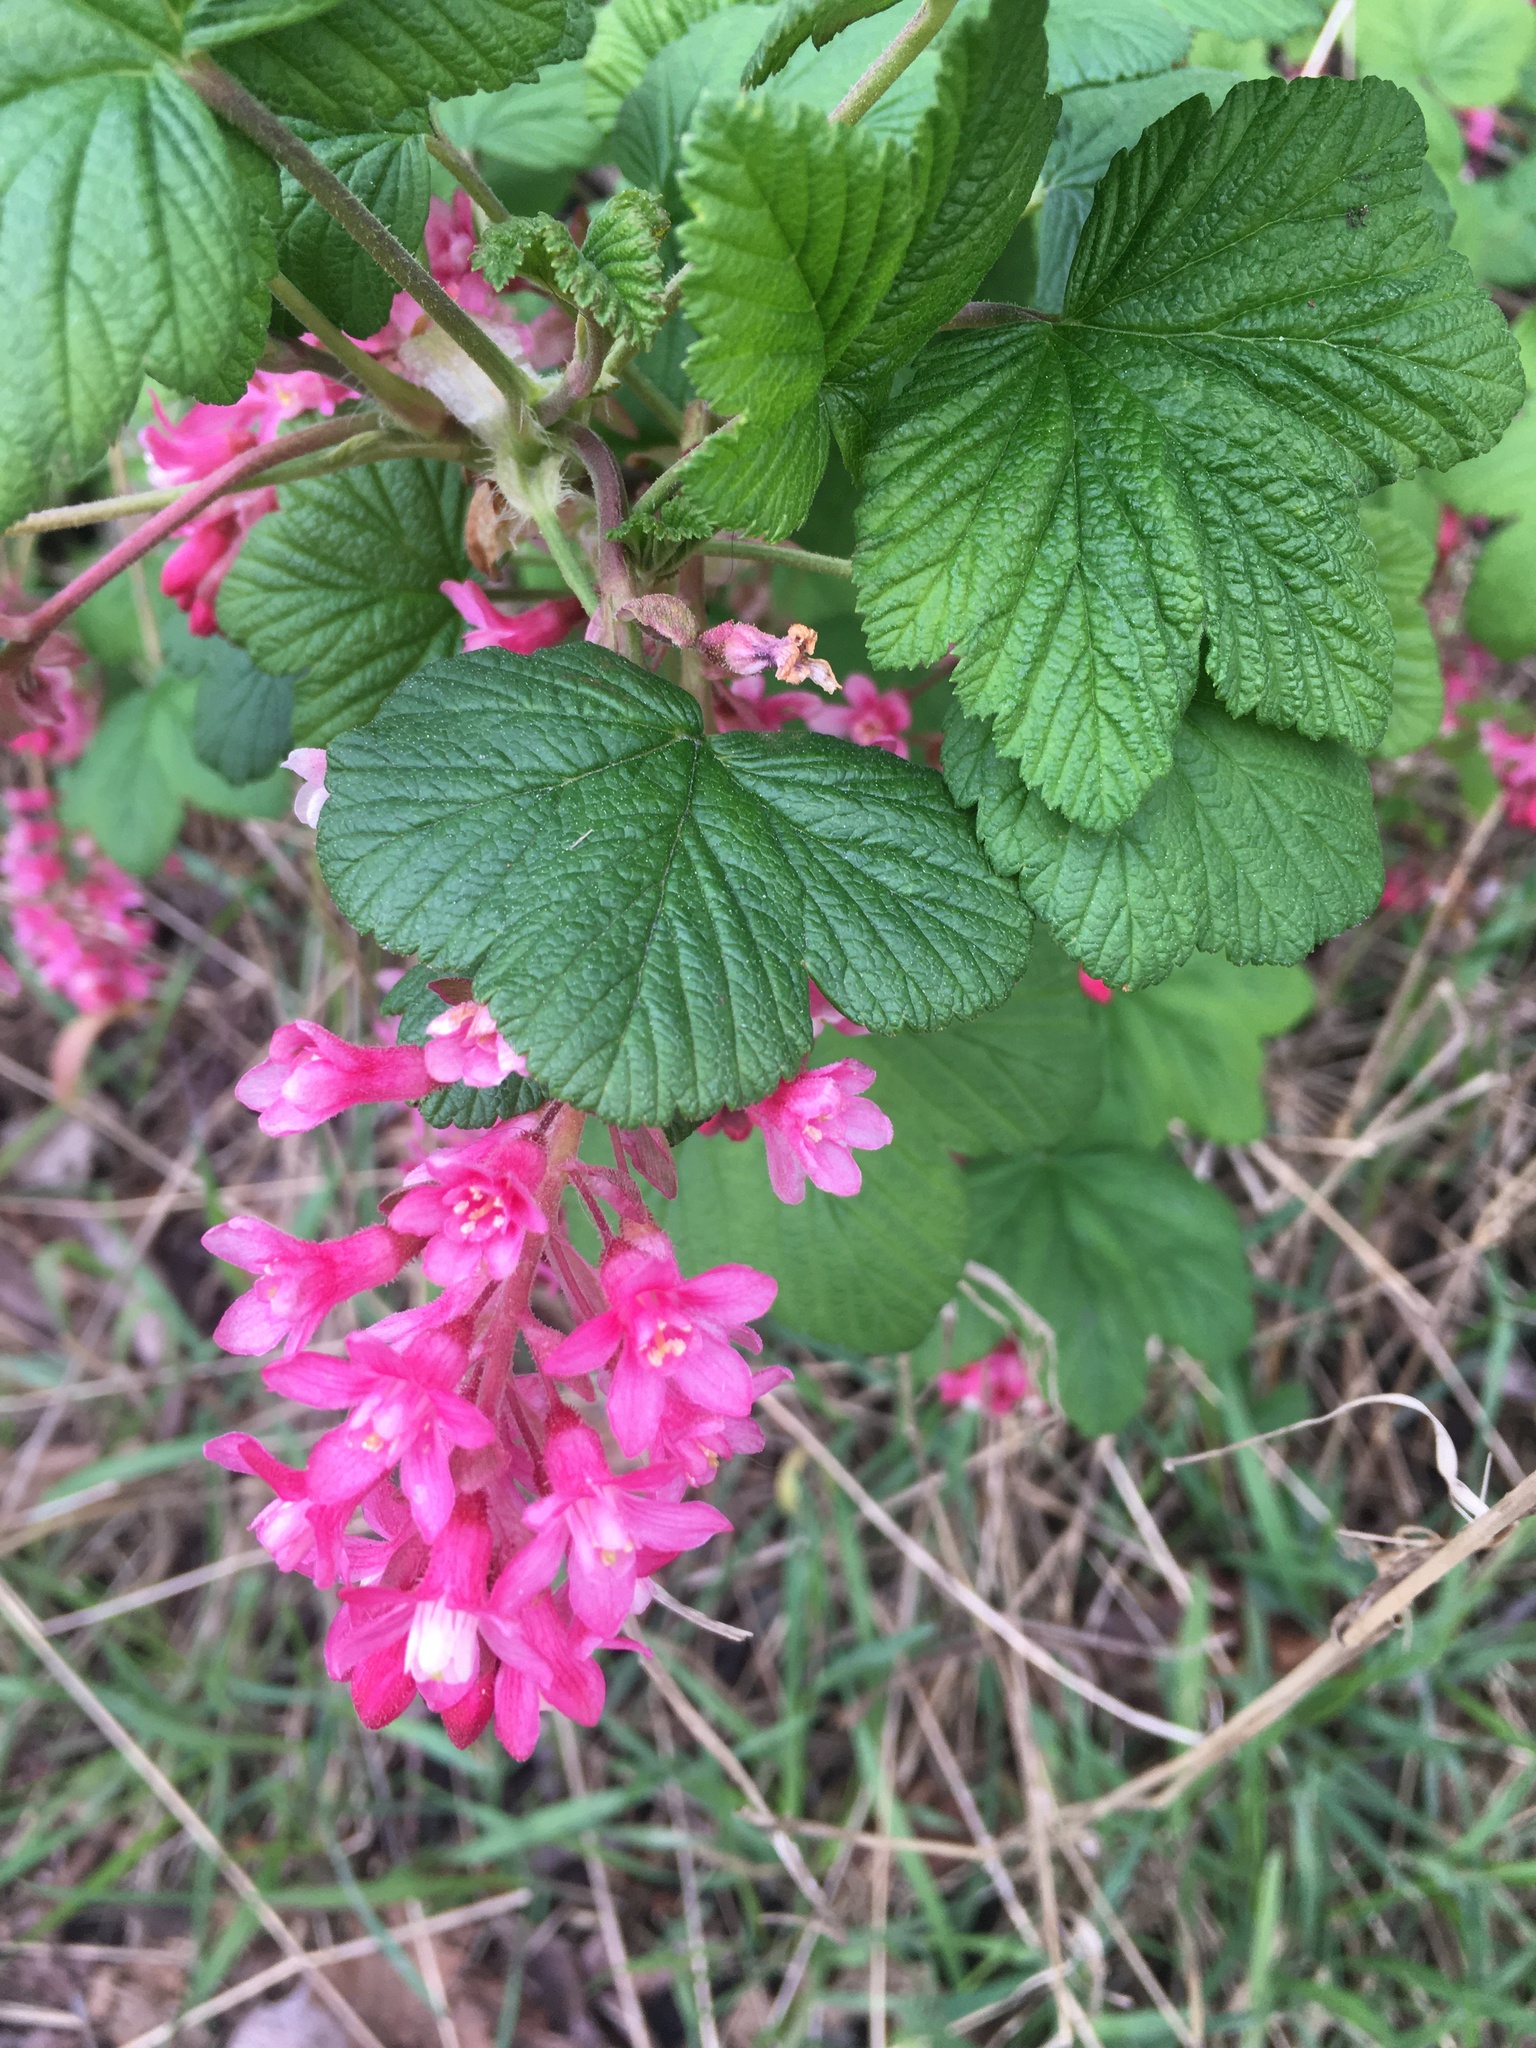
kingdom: Plantae
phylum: Tracheophyta
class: Magnoliopsida
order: Saxifragales
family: Grossulariaceae
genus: Ribes
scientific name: Ribes sanguineum
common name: Flowering currant
